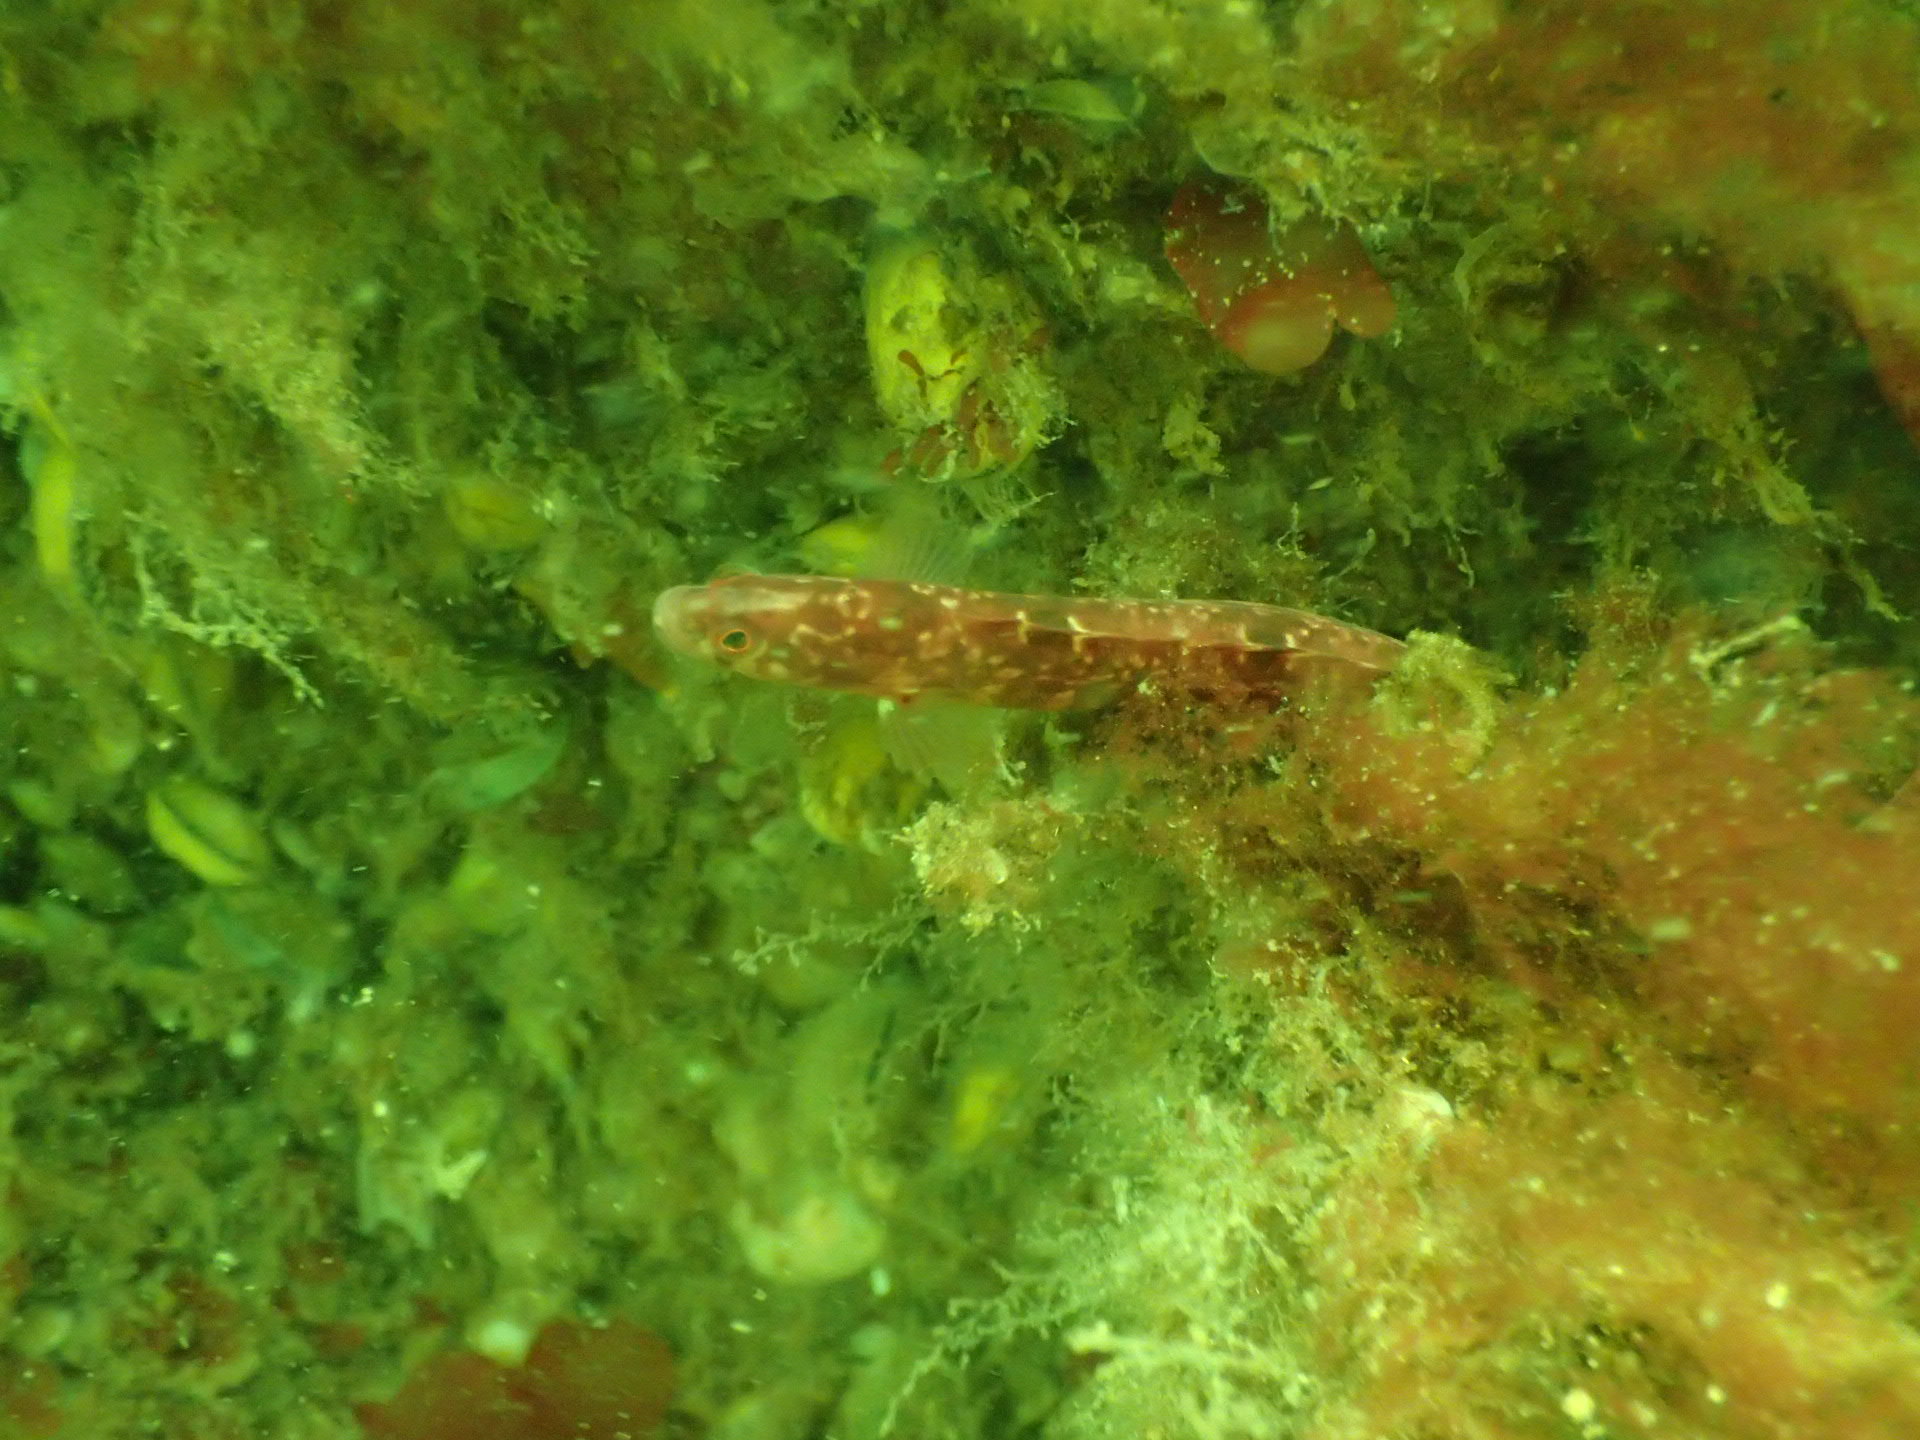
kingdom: Animalia
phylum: Chordata
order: Perciformes
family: Pholidae
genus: Pholis
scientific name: Pholis gunnellus
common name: Butterfish
